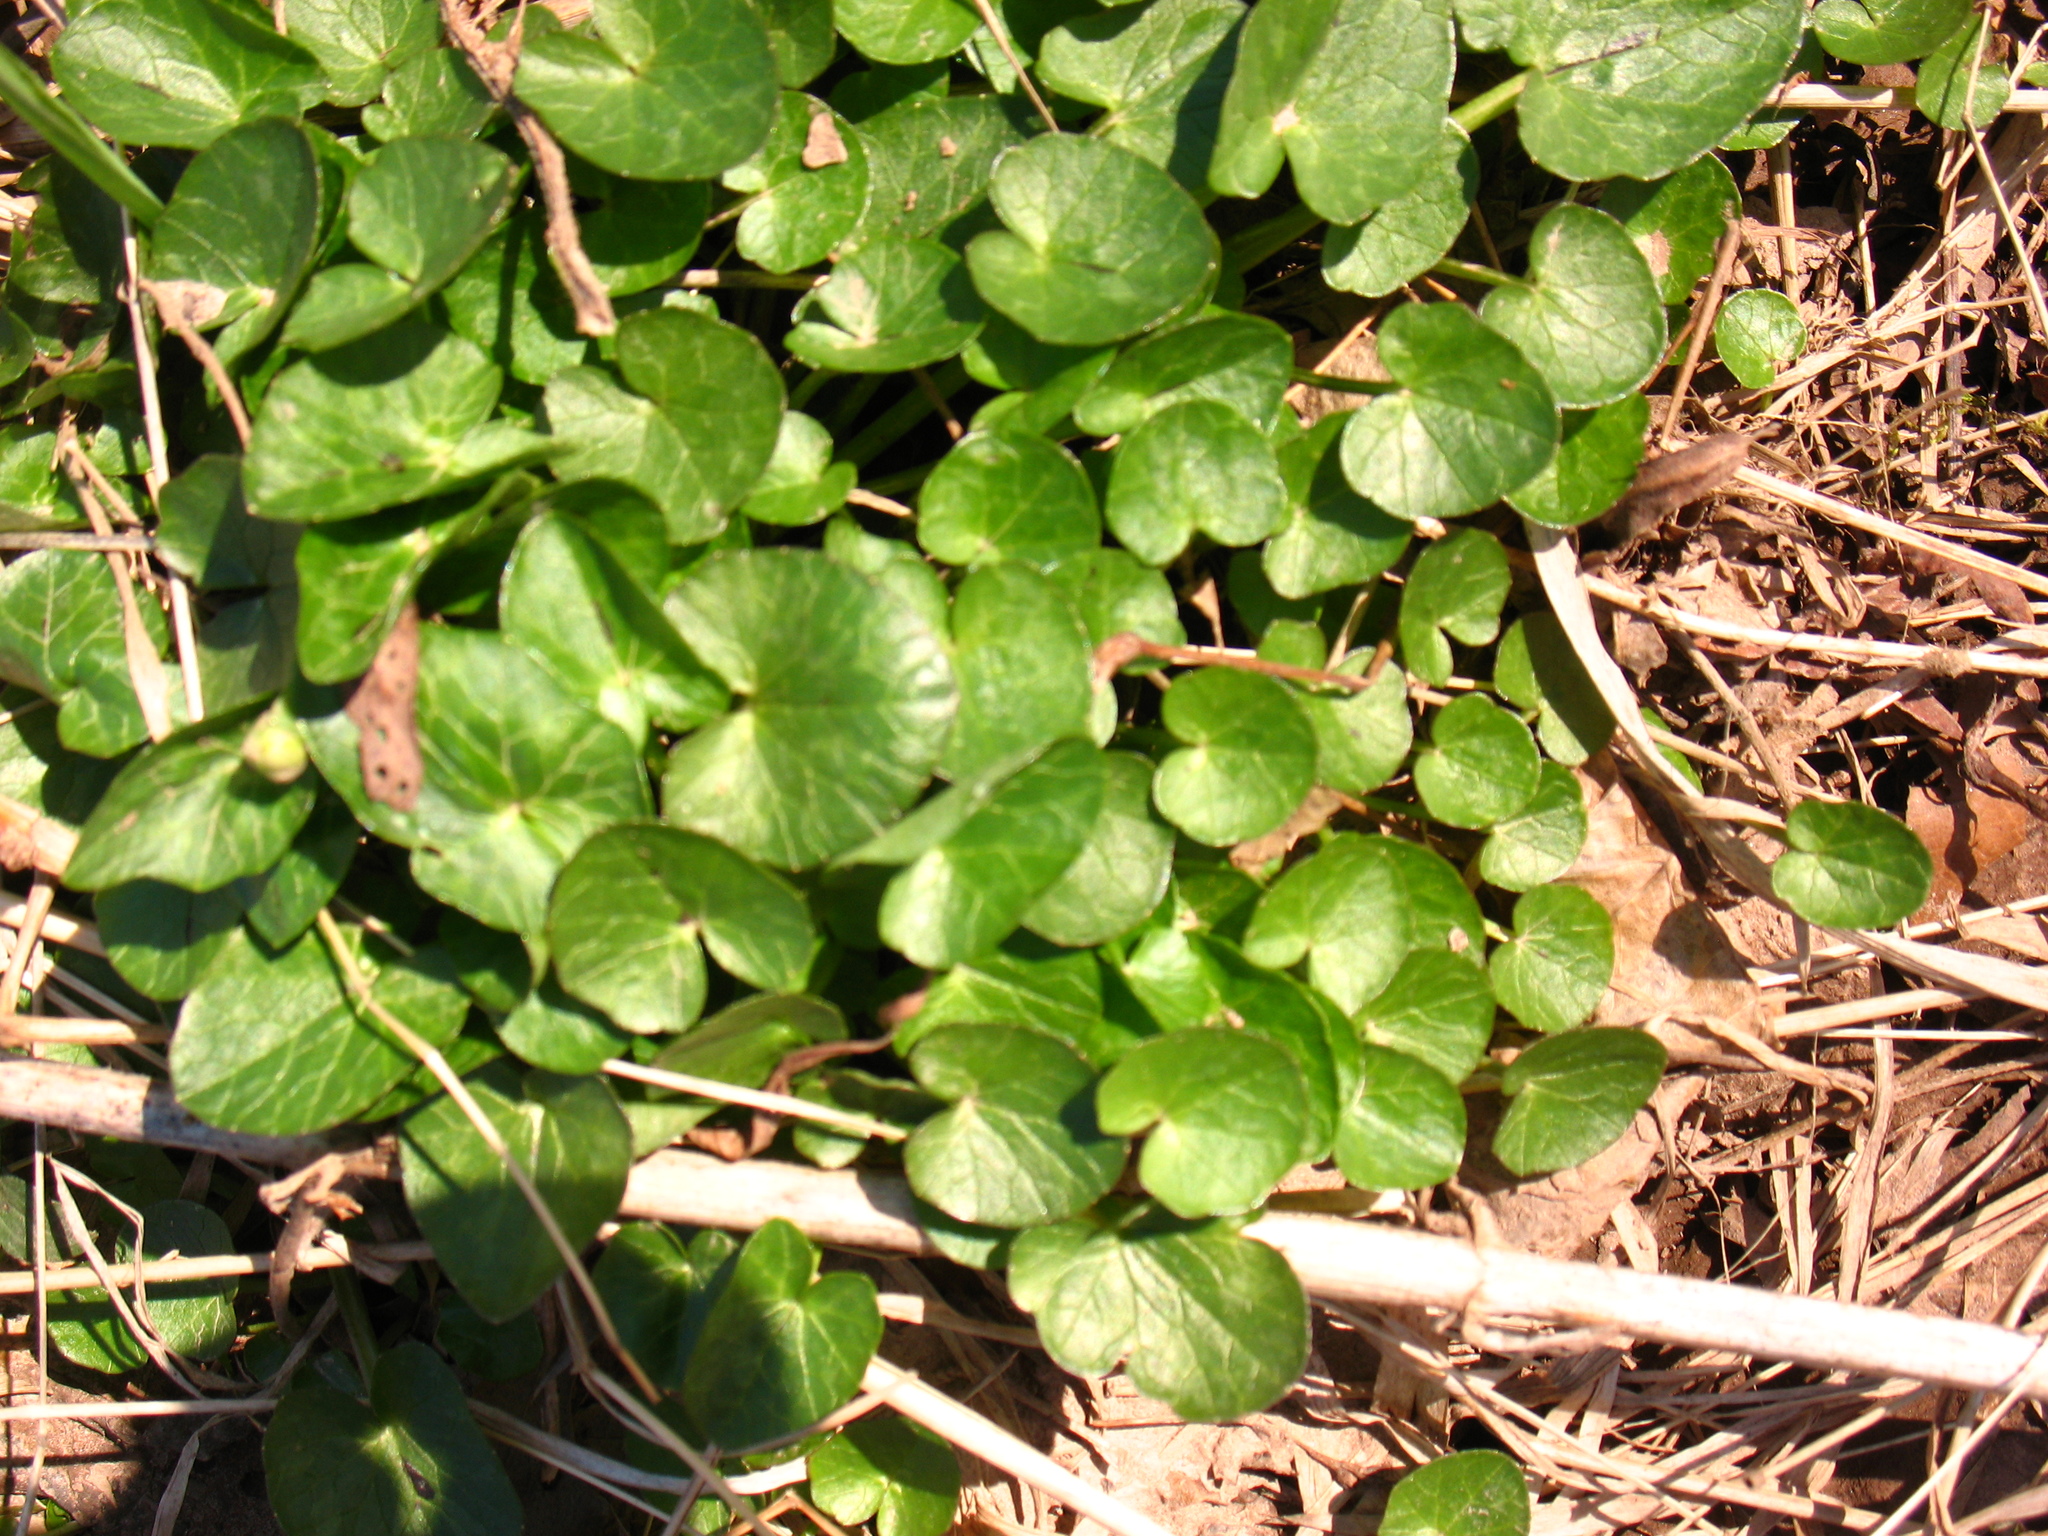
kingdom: Plantae
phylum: Tracheophyta
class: Magnoliopsida
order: Ranunculales
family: Ranunculaceae
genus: Ficaria
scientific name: Ficaria verna
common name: Lesser celandine
